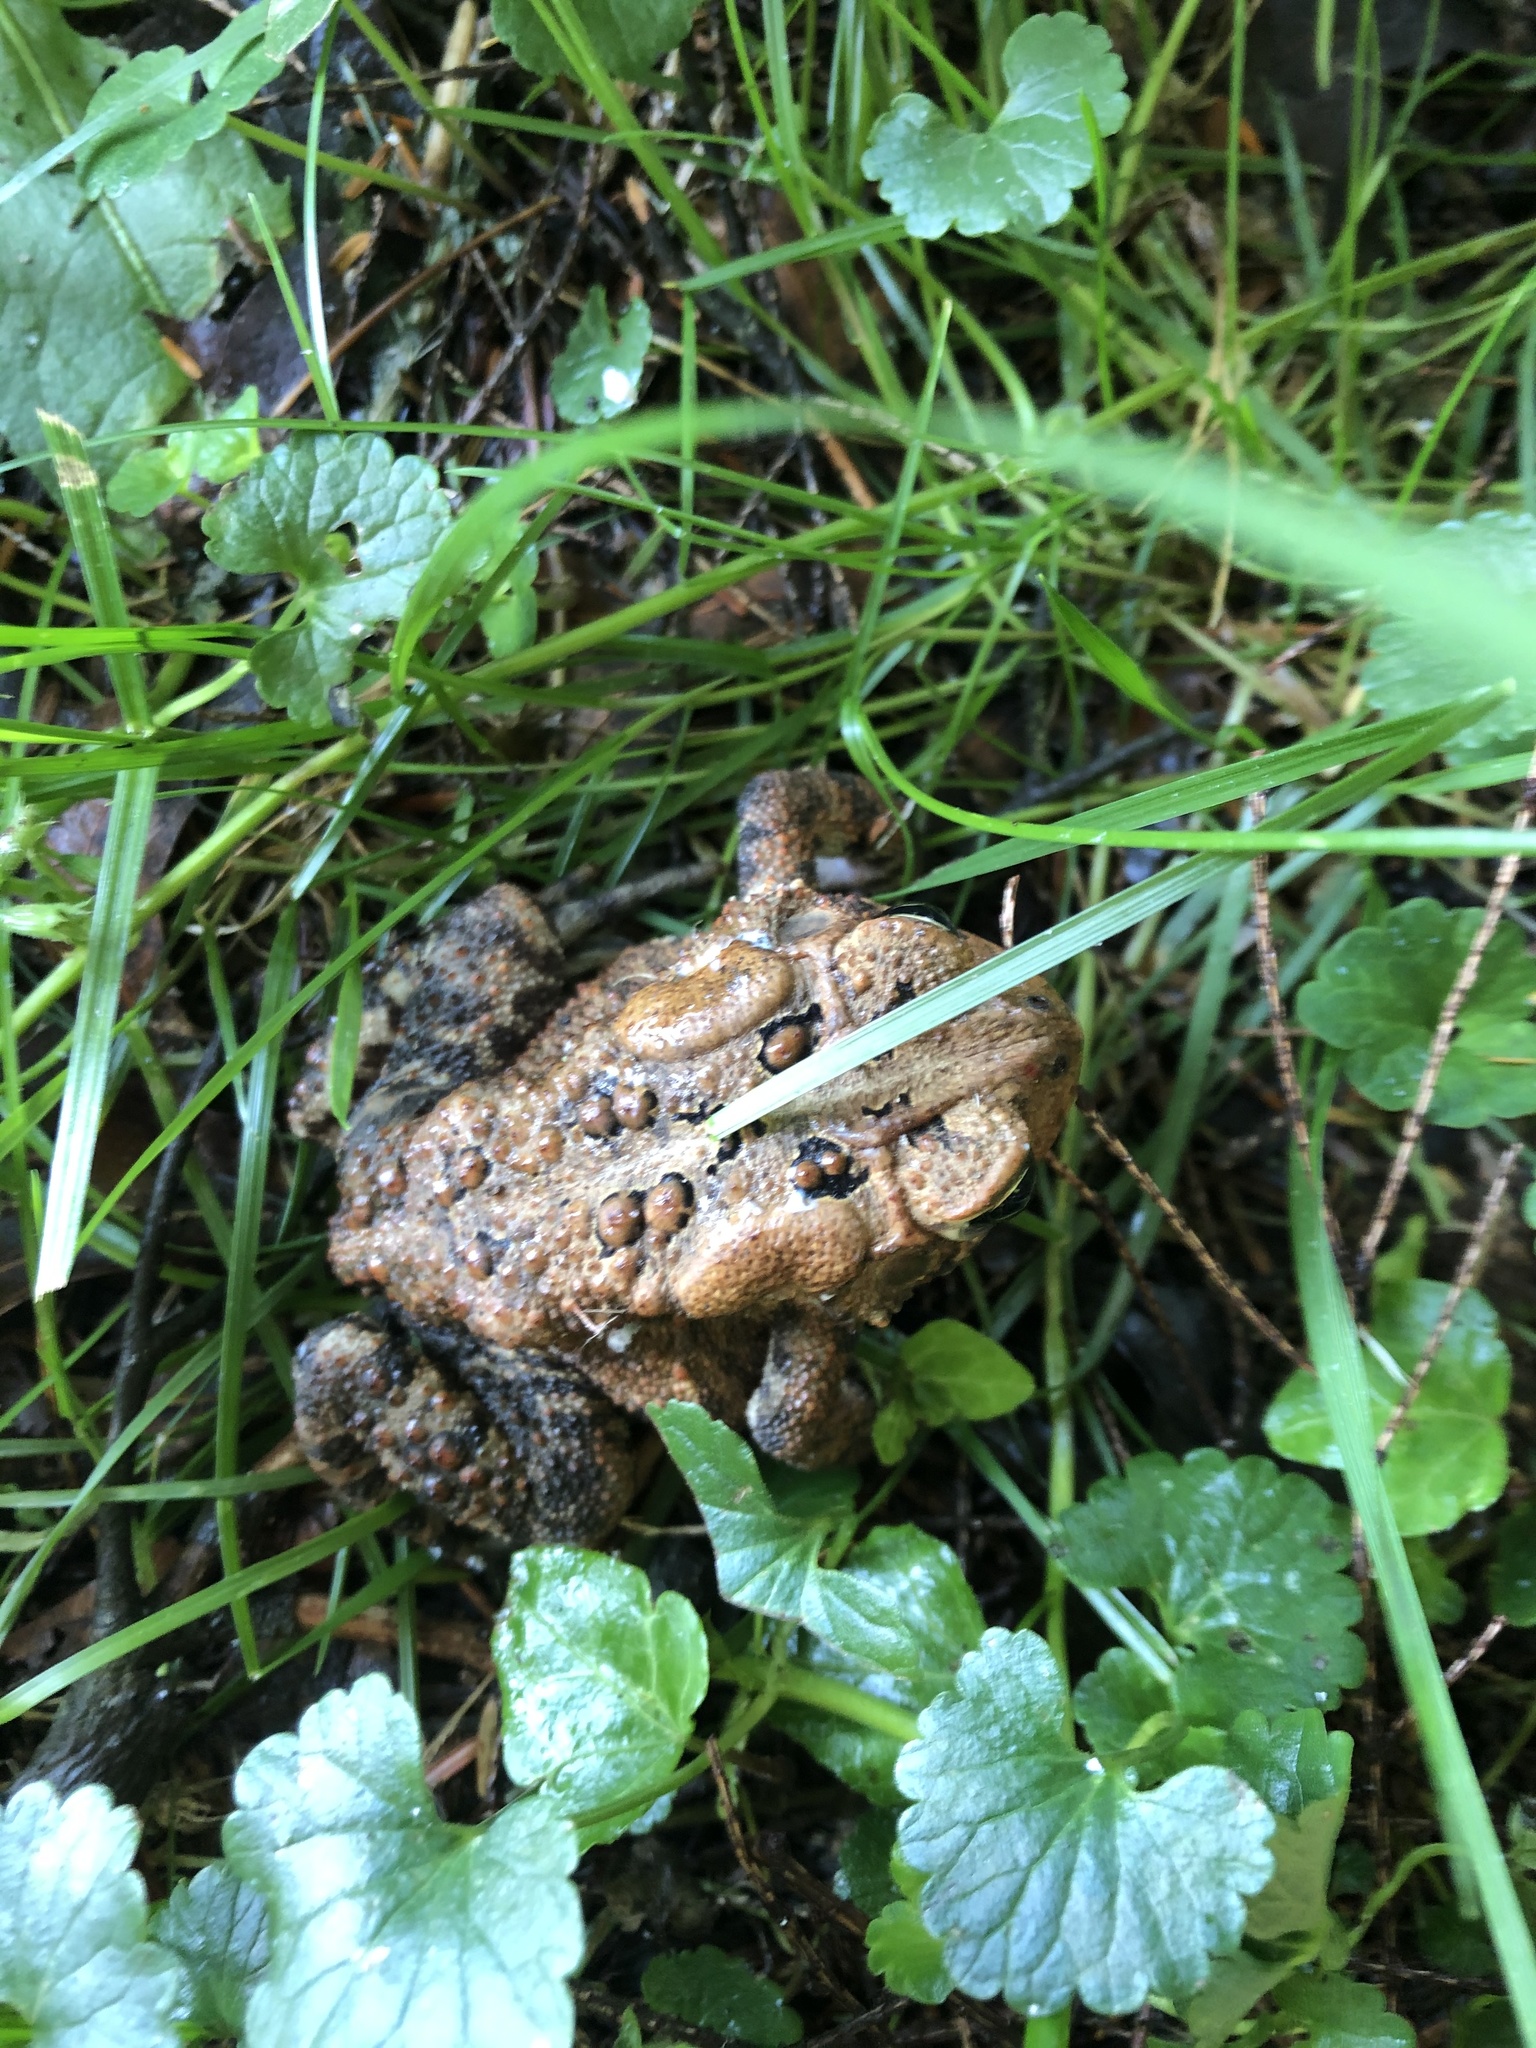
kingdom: Animalia
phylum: Chordata
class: Amphibia
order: Anura
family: Bufonidae
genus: Anaxyrus
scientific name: Anaxyrus americanus
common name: American toad
